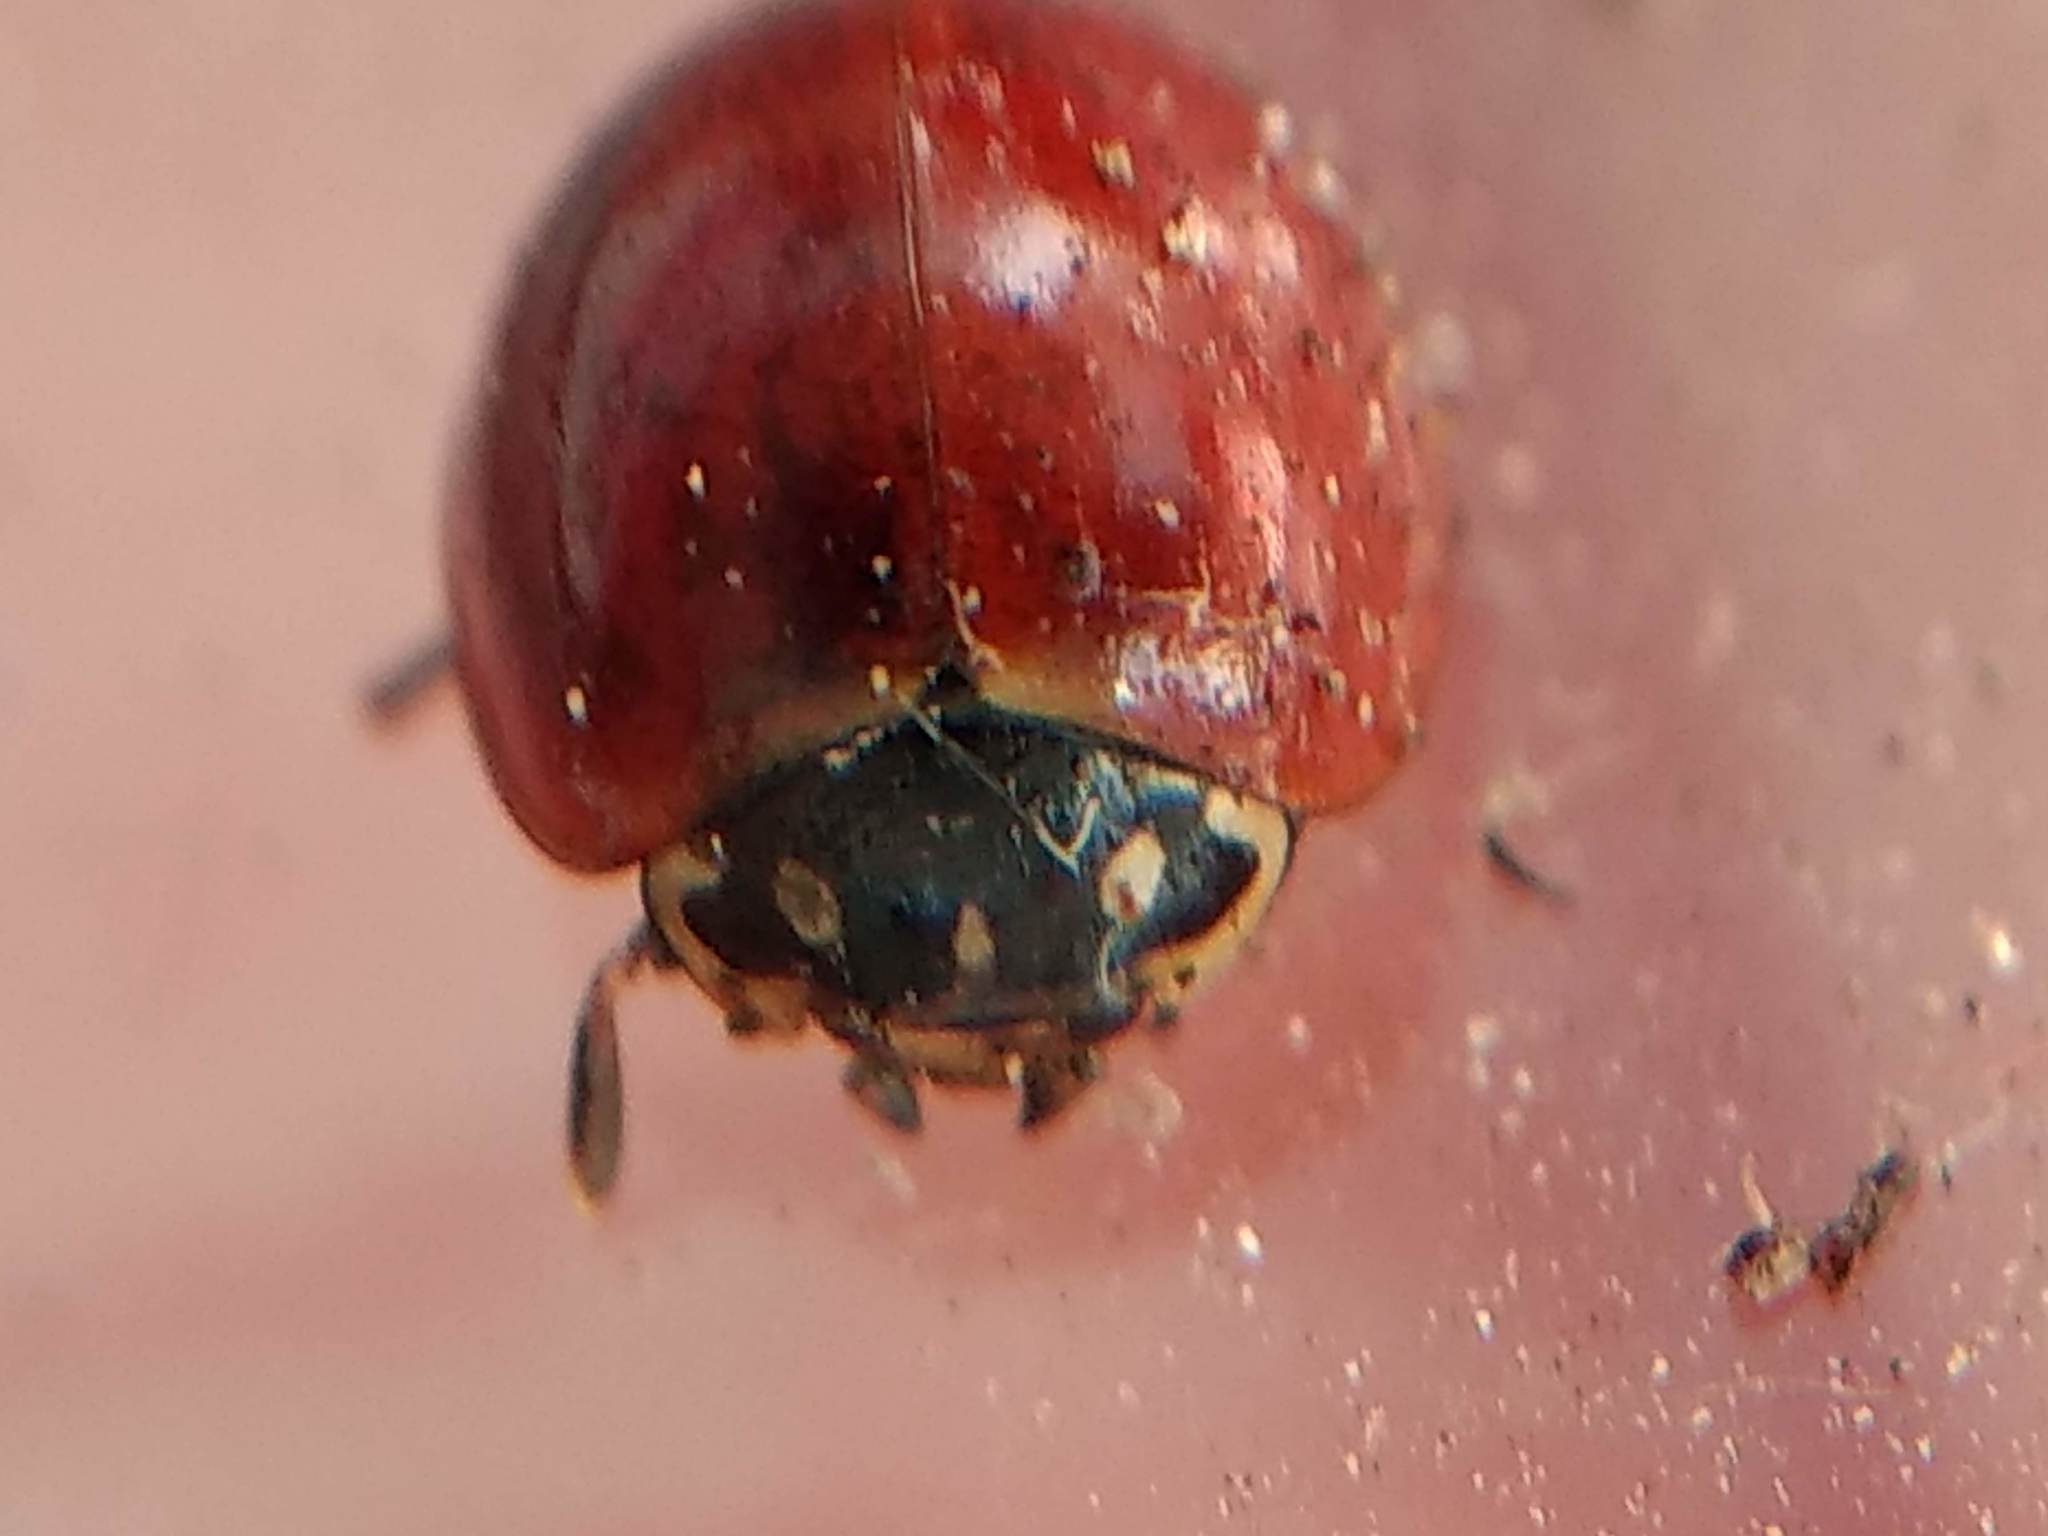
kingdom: Animalia
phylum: Arthropoda
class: Insecta
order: Coleoptera
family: Coccinellidae
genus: Cycloneda
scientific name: Cycloneda sanguinea
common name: Ladybird beetle
